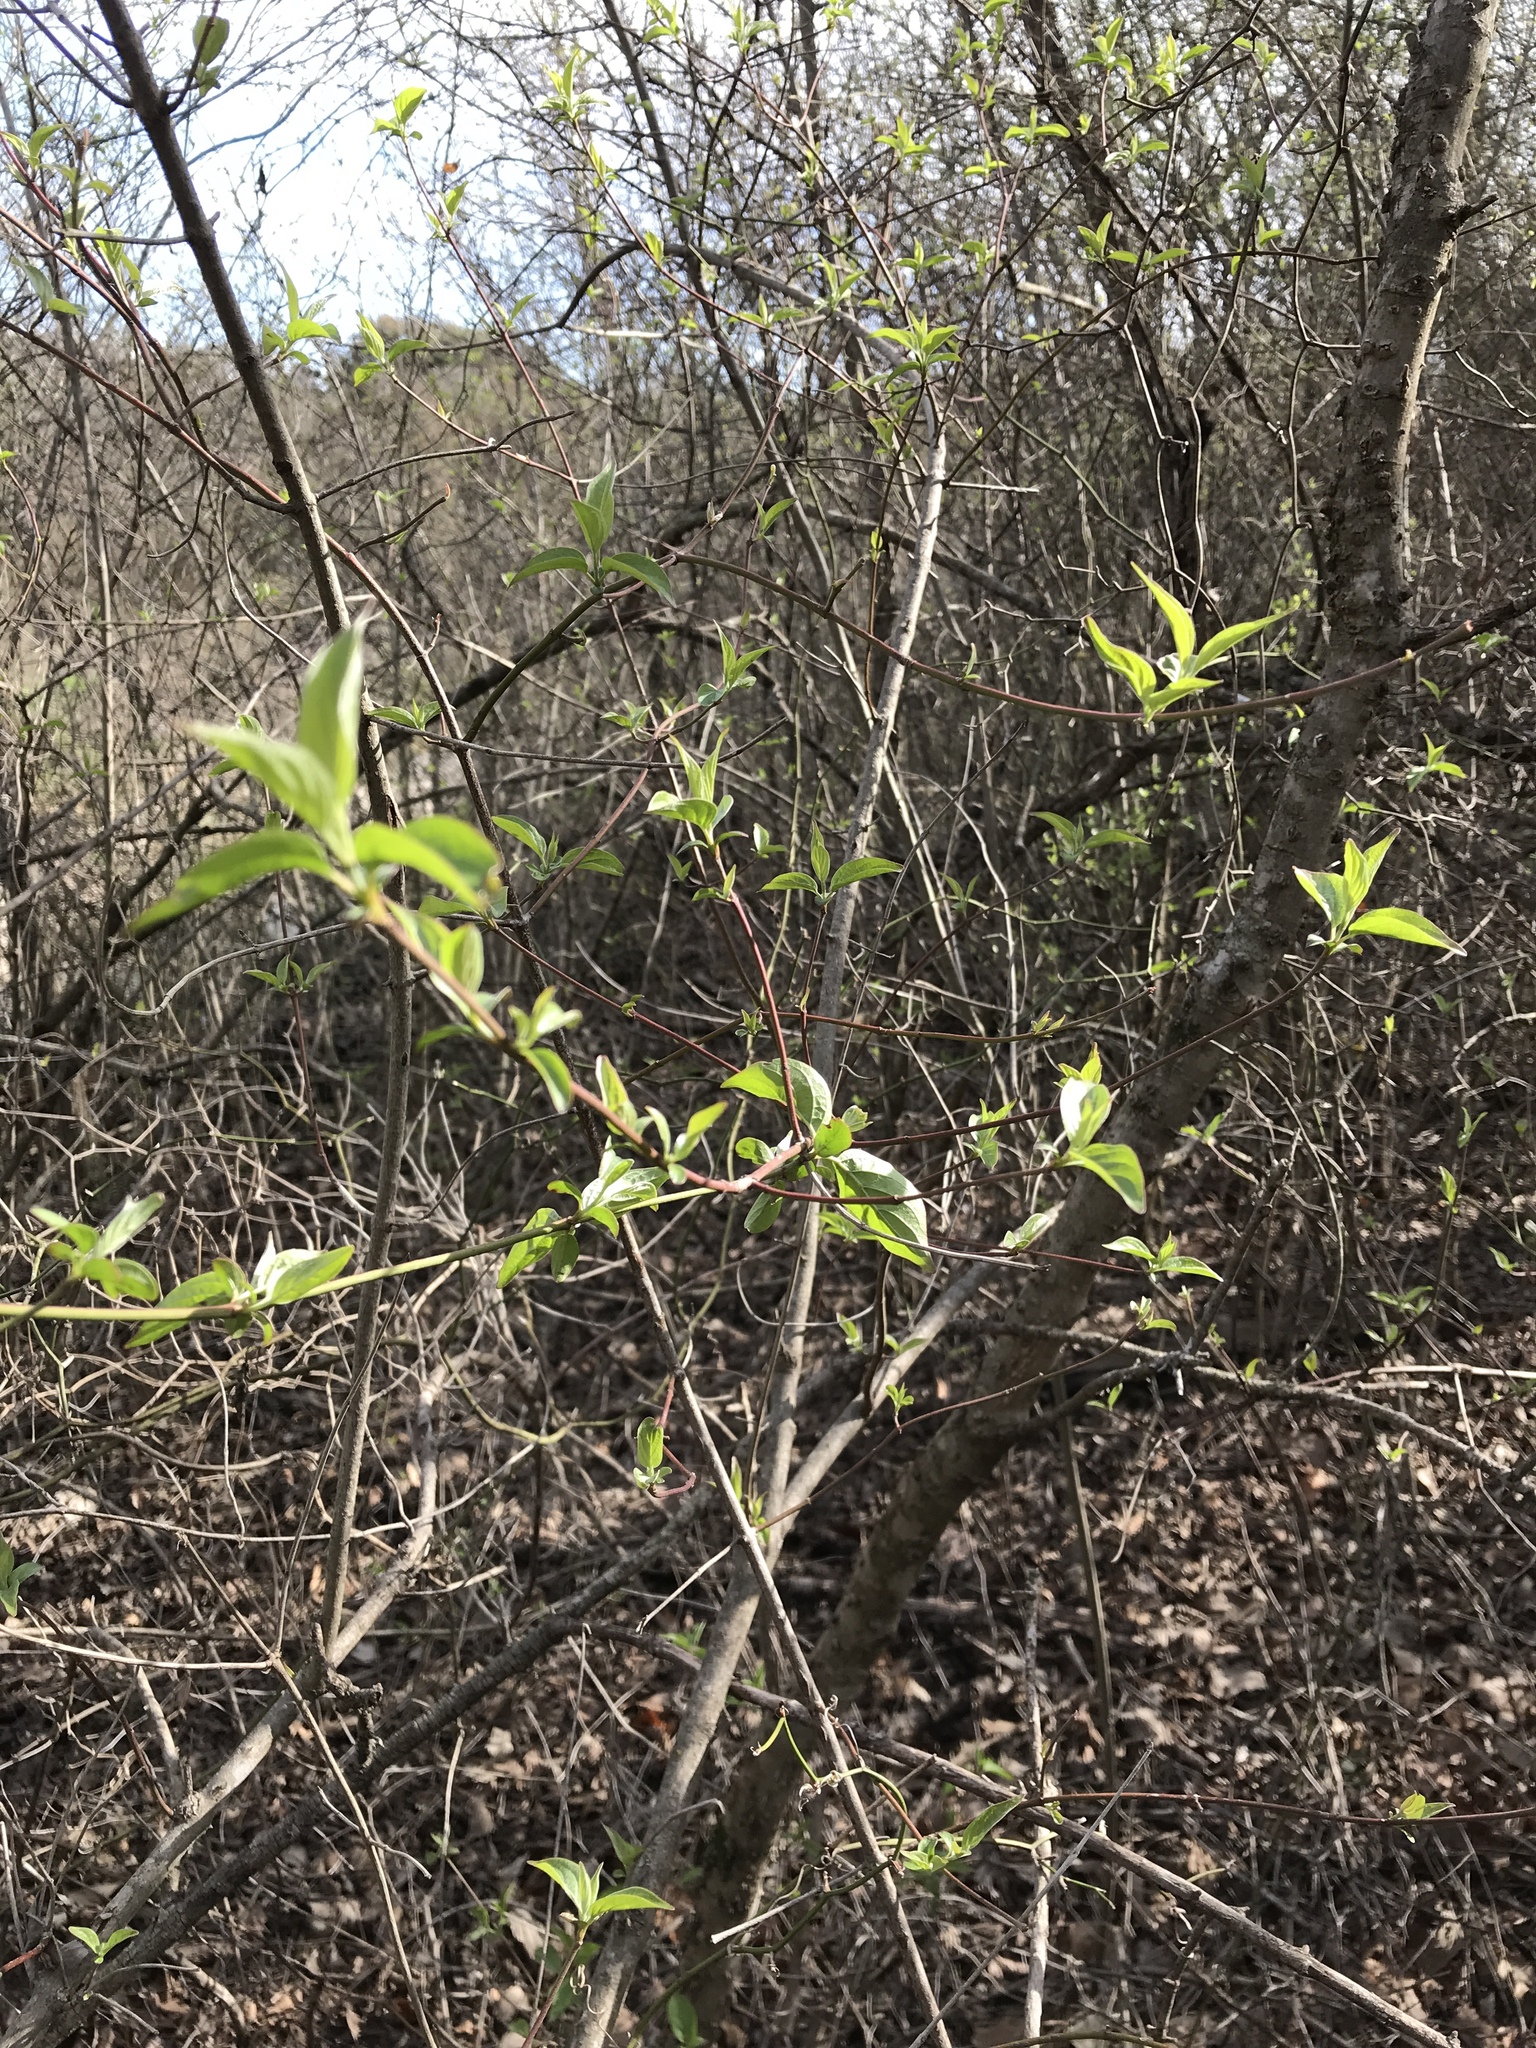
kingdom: Plantae
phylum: Tracheophyta
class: Magnoliopsida
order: Cornales
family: Cornaceae
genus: Cornus
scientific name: Cornus drummondii
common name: Rough-leaf dogwood
